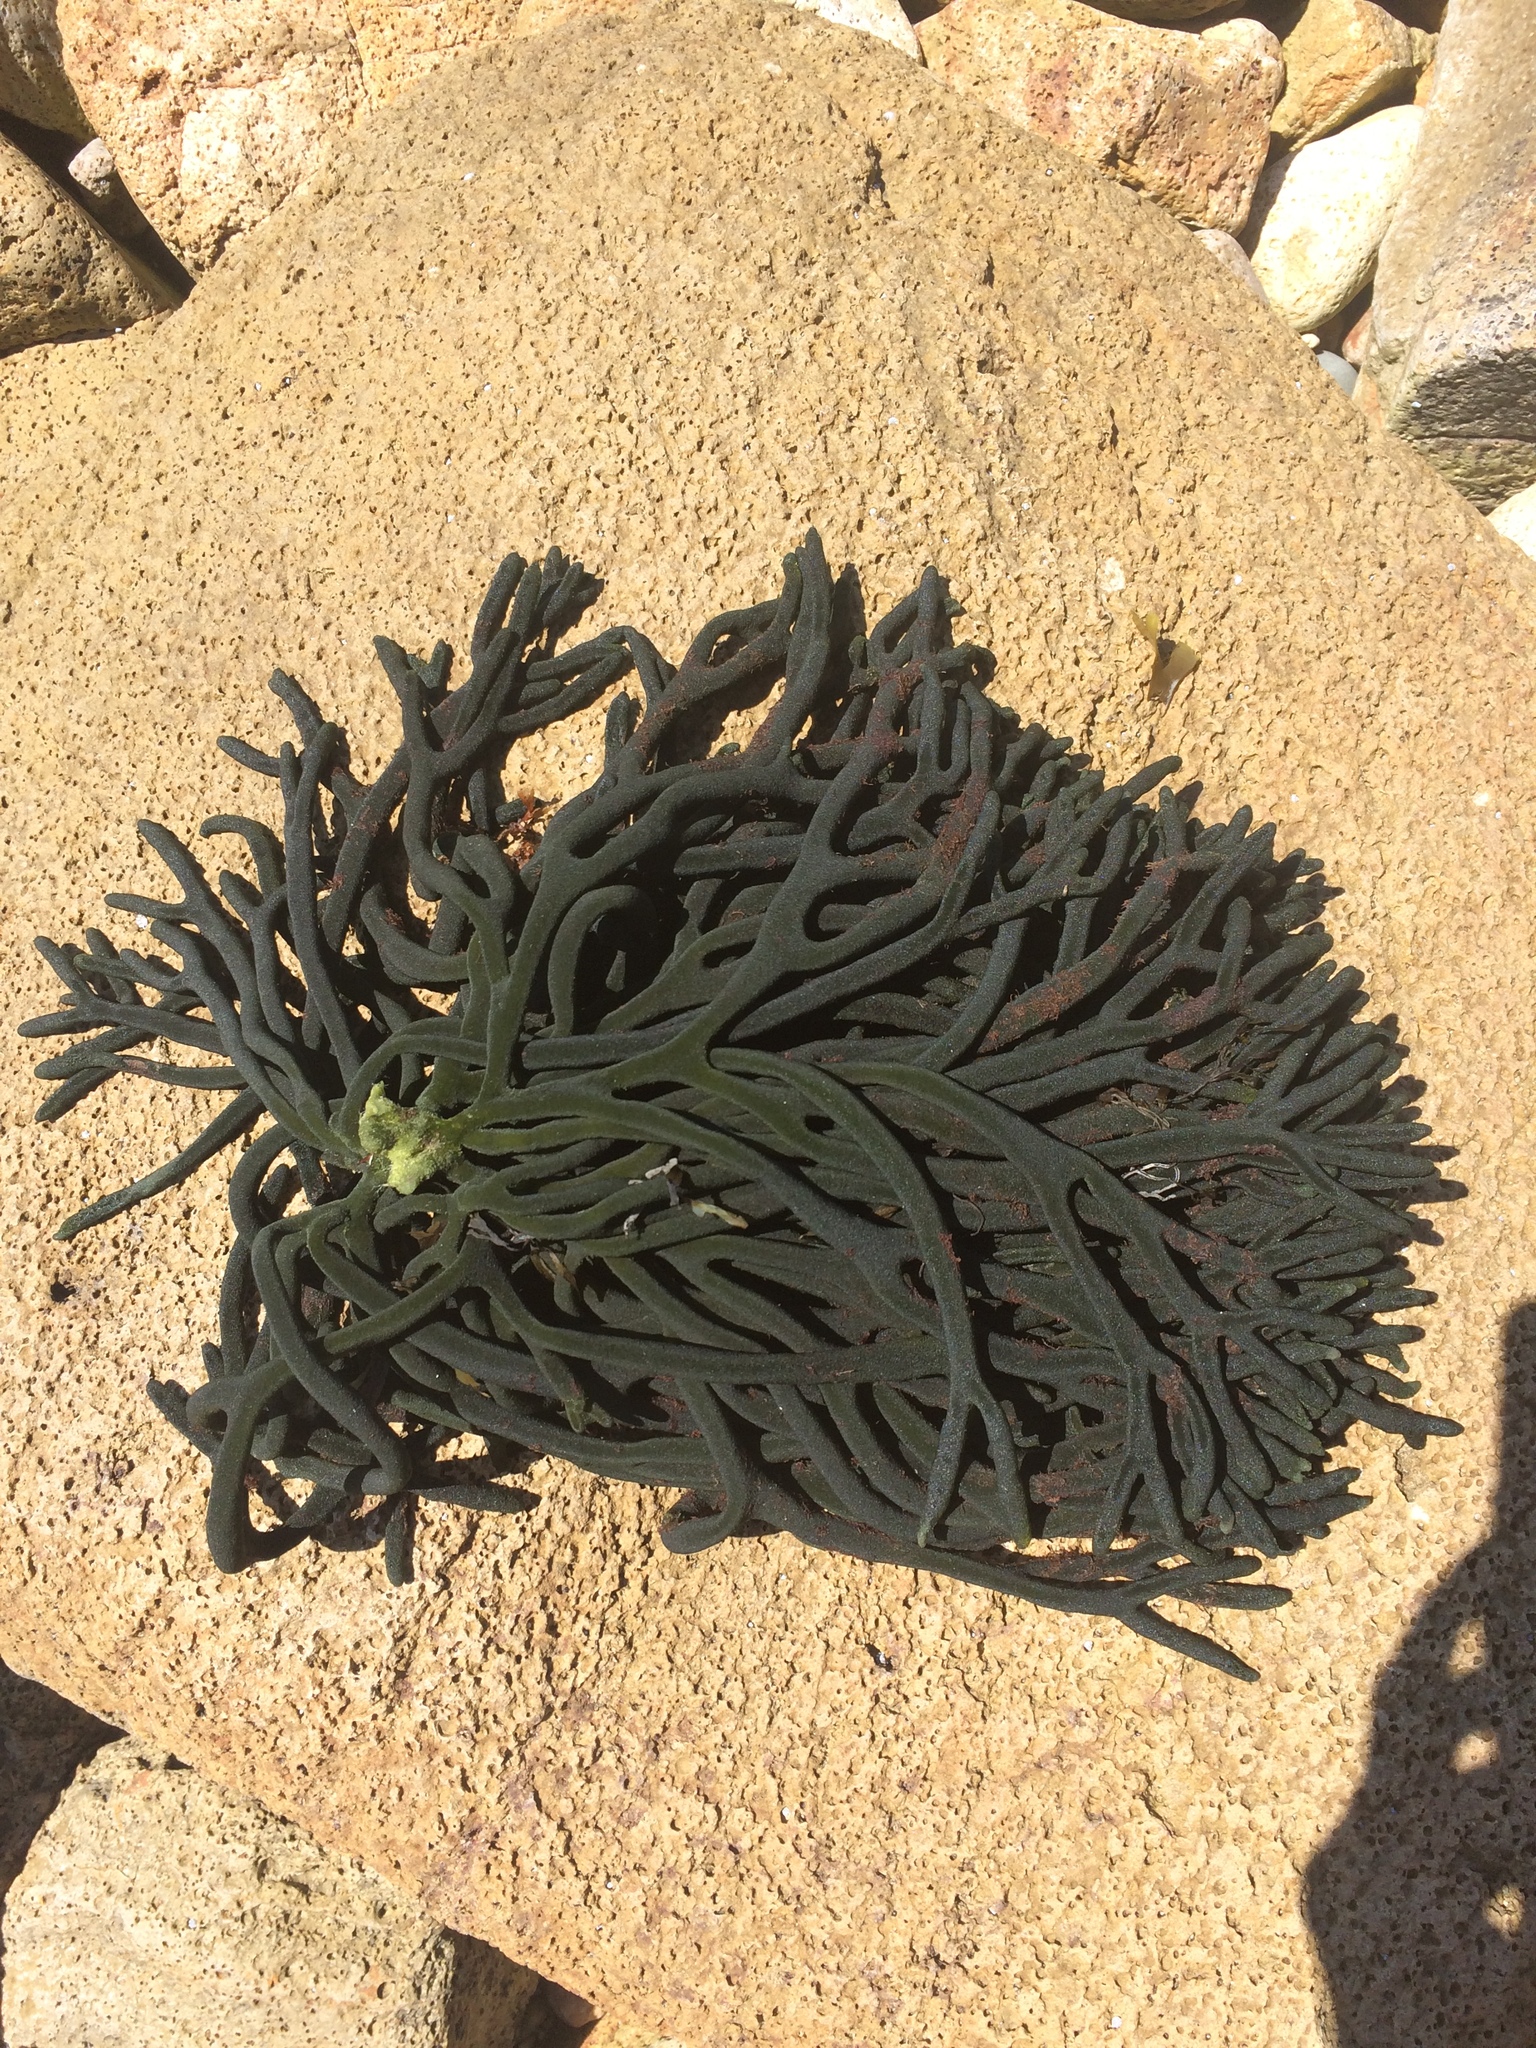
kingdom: Plantae
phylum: Chlorophyta
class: Ulvophyceae
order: Bryopsidales
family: Codiaceae
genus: Codium
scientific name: Codium fragile
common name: Dead man's fingers
